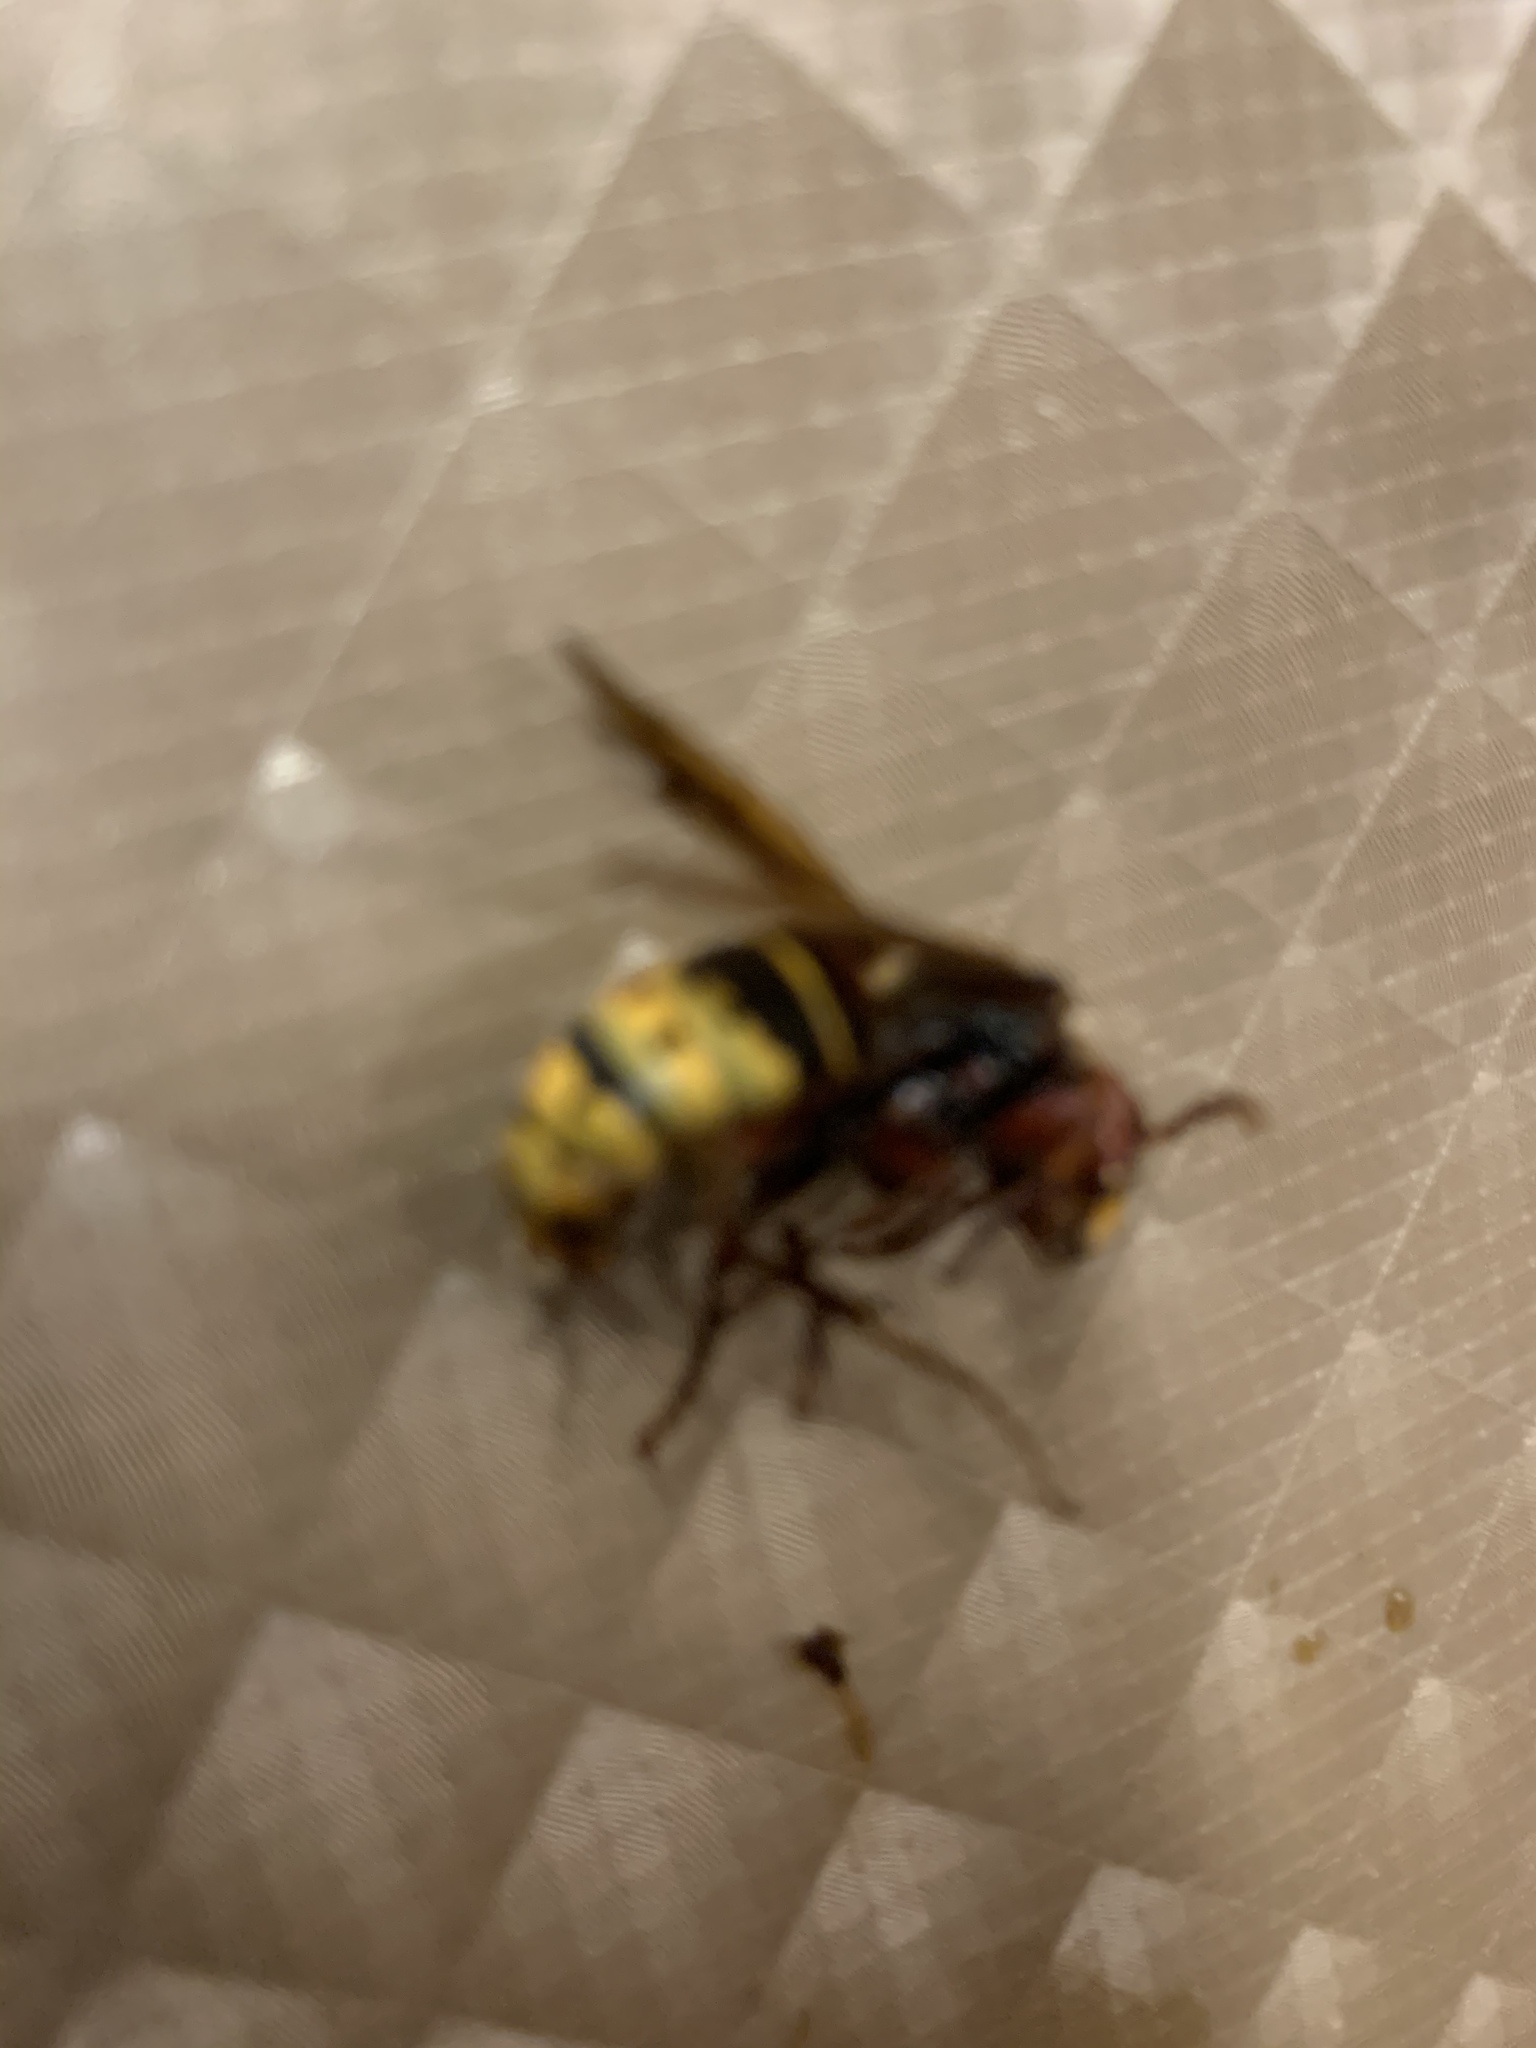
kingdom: Animalia
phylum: Arthropoda
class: Insecta
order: Hymenoptera
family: Vespidae
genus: Vespa
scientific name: Vespa crabro
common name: Hornet
